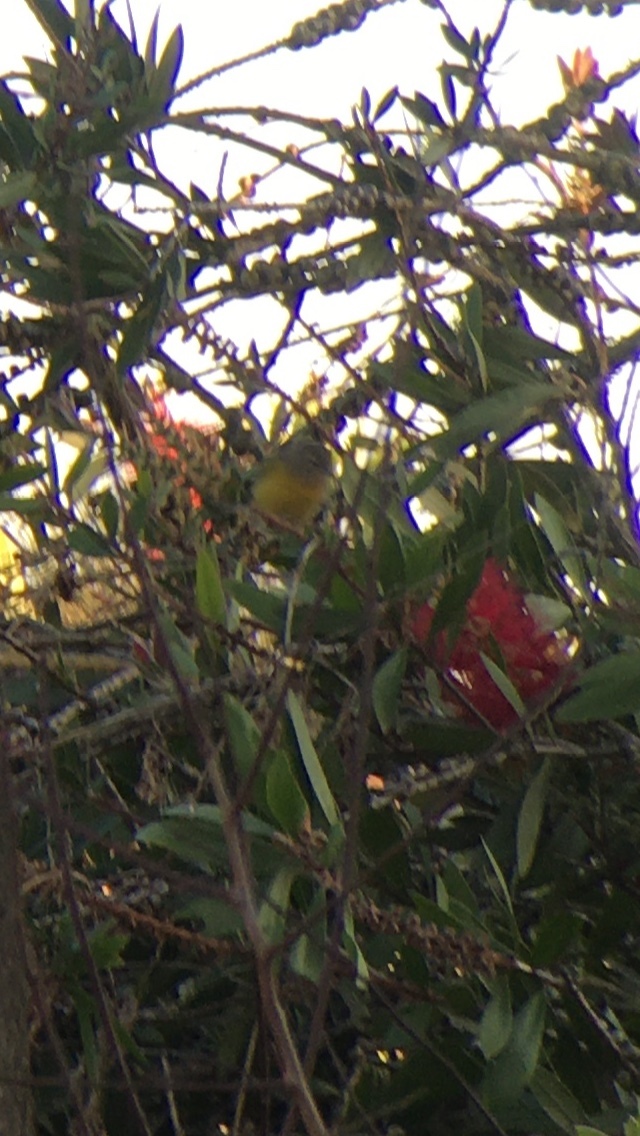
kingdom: Animalia
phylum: Chordata
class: Aves
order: Passeriformes
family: Parulidae
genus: Leiothlypis
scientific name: Leiothlypis ruficapilla
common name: Nashville warbler
